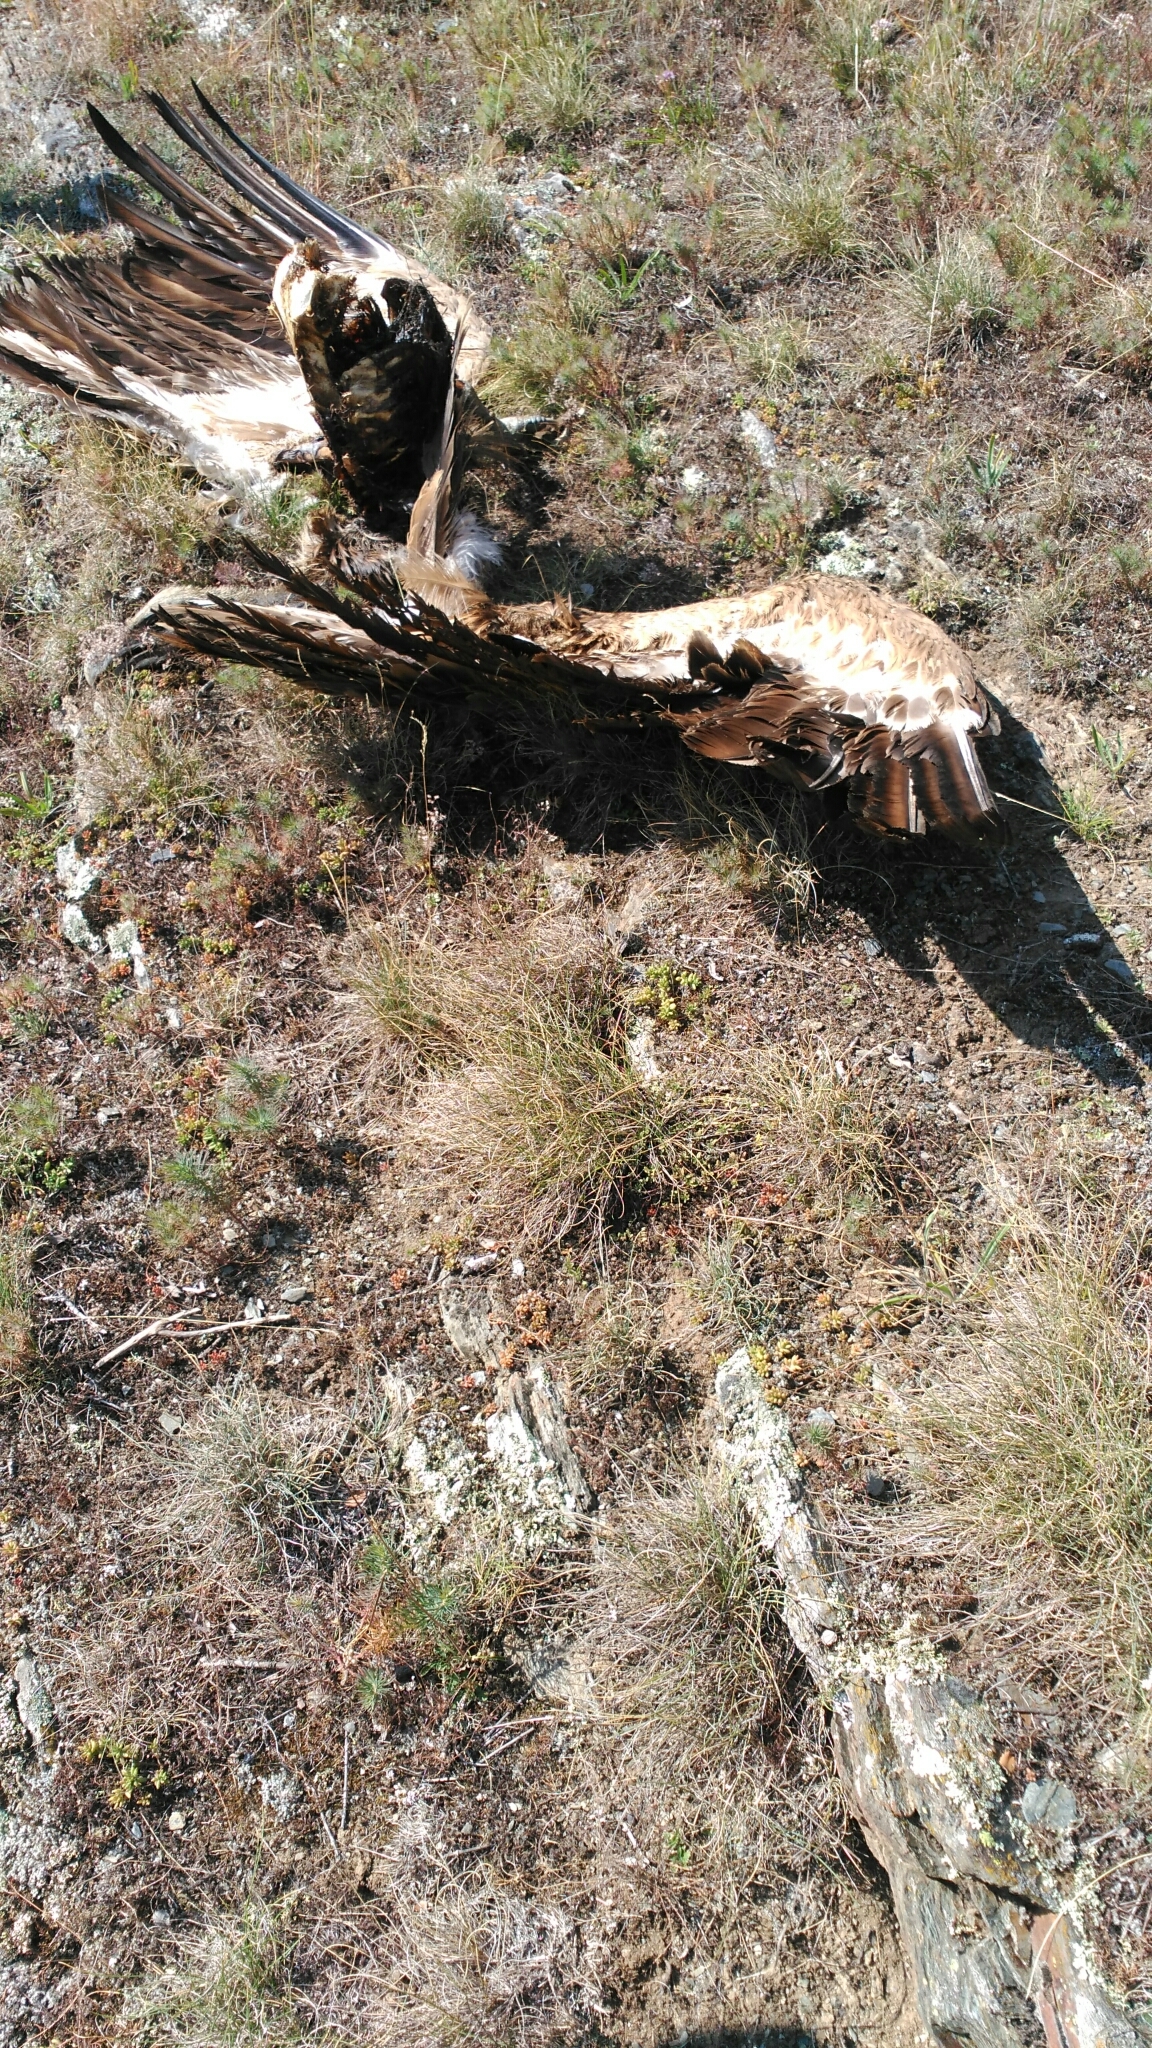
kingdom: Animalia
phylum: Chordata
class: Aves
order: Accipitriformes
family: Accipitridae
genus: Gyps
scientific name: Gyps fulvus
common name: Griffon vulture
